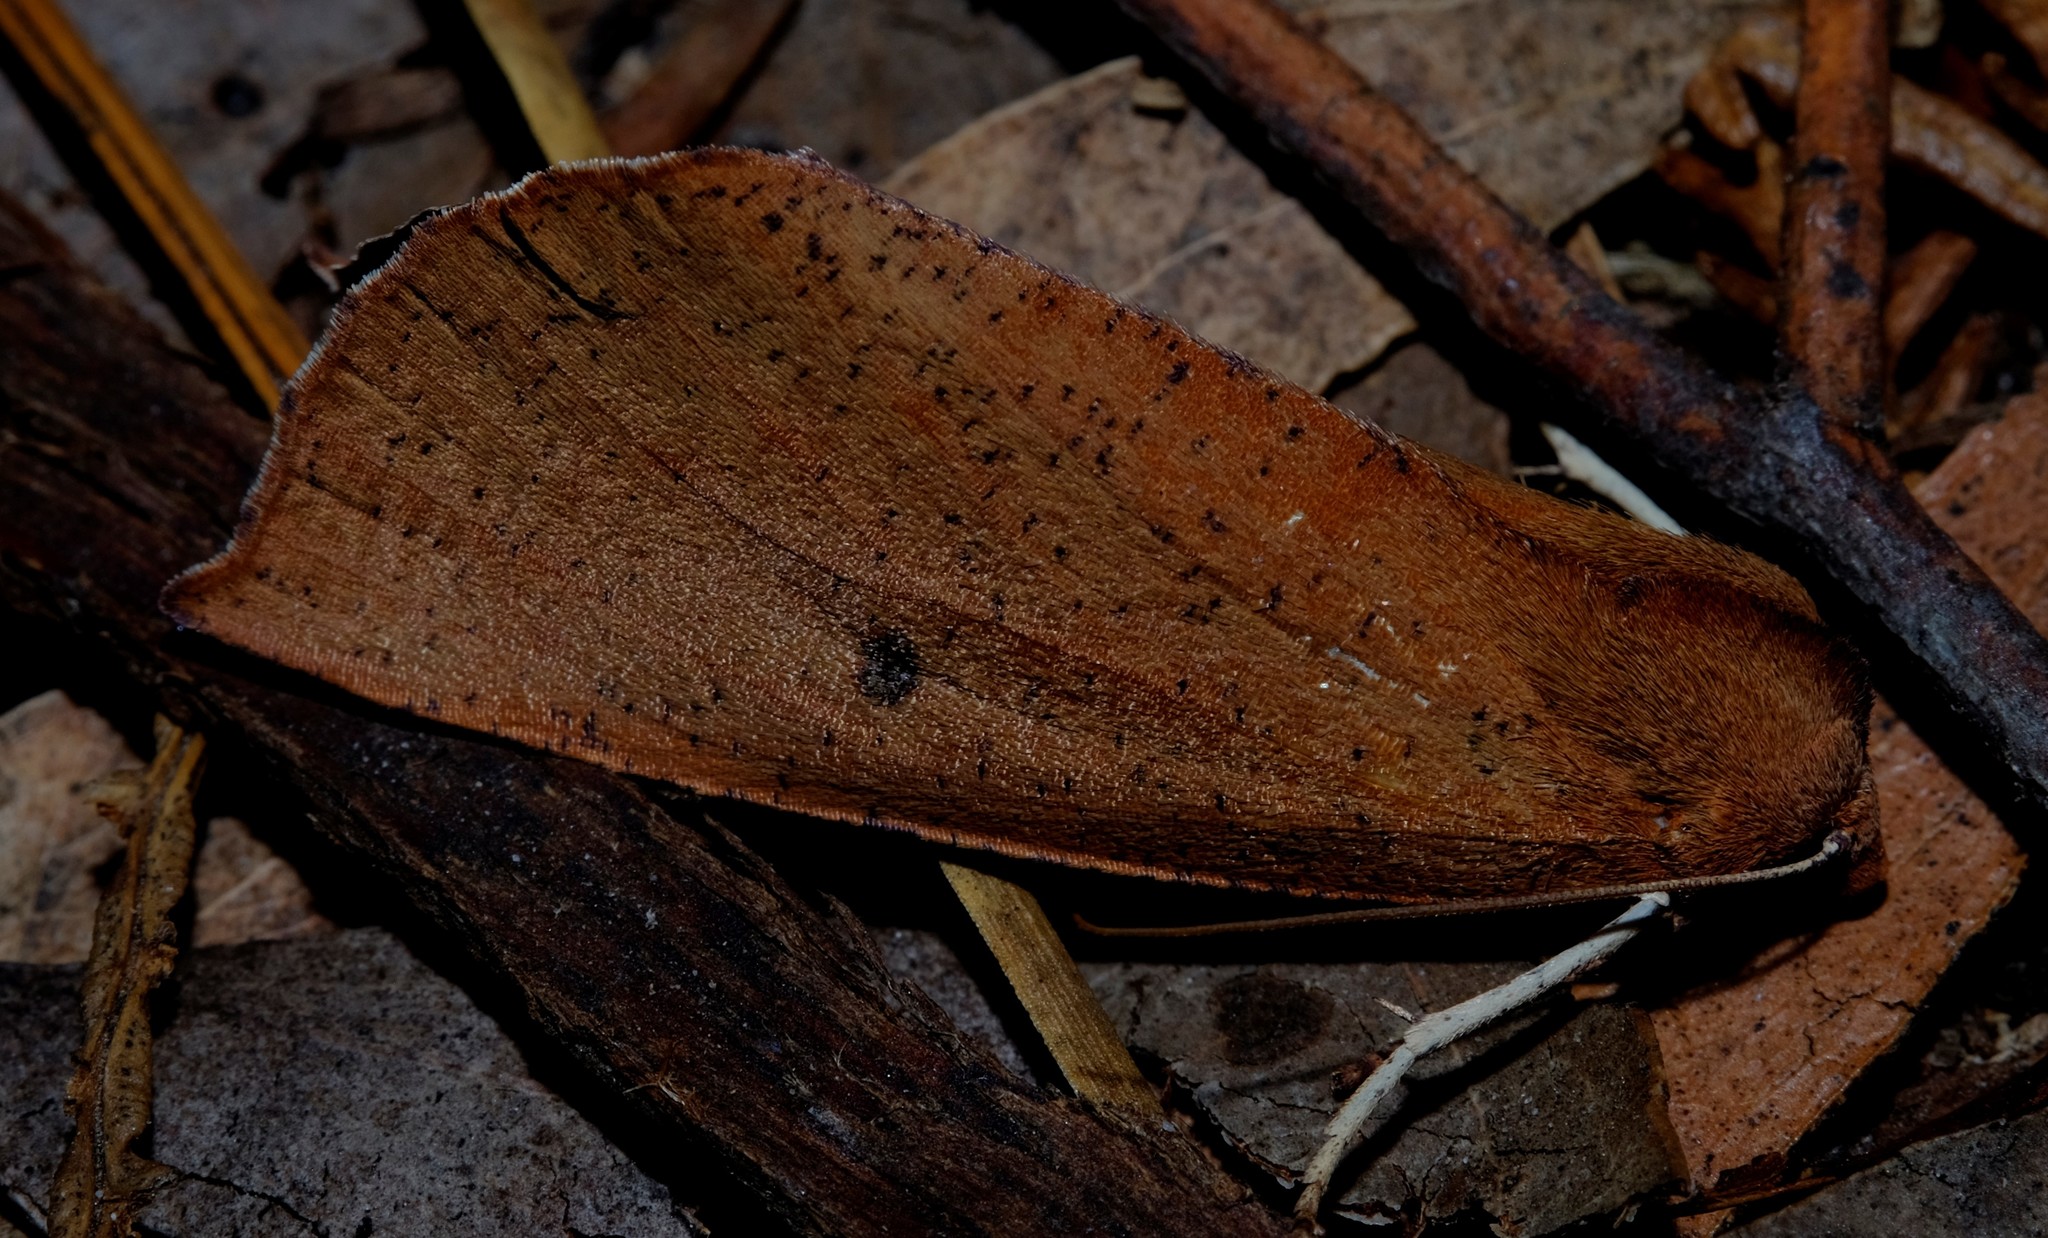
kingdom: Animalia
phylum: Arthropoda
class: Insecta
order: Lepidoptera
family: Geometridae
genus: Fisera
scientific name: Fisera hypoleuca
